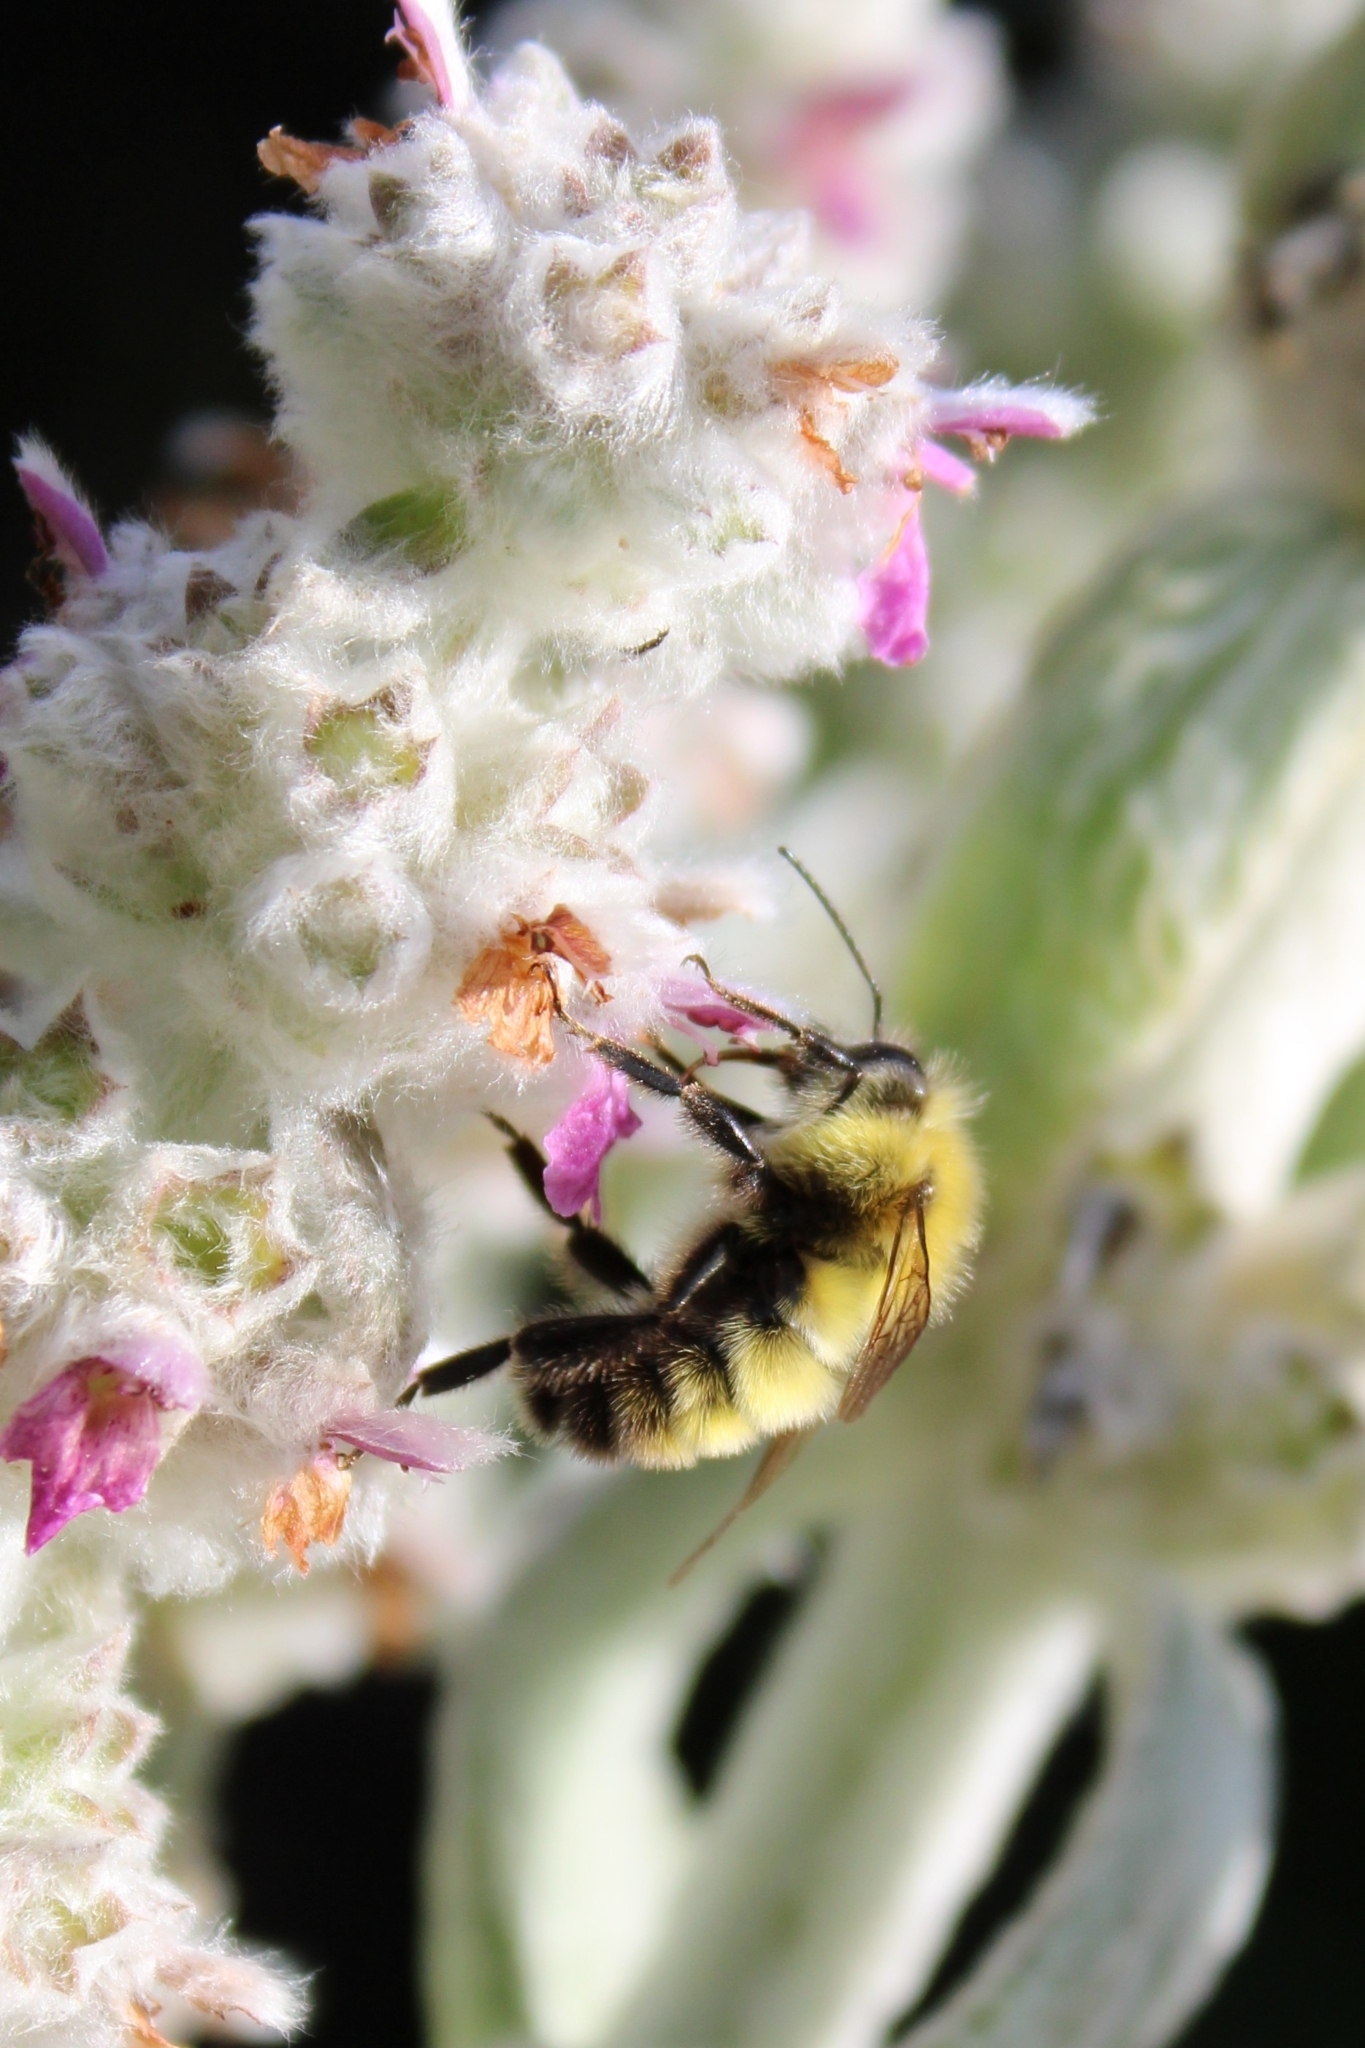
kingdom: Animalia
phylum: Arthropoda
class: Insecta
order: Hymenoptera
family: Apidae
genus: Bombus
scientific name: Bombus perplexus
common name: Confusing bumble bee
